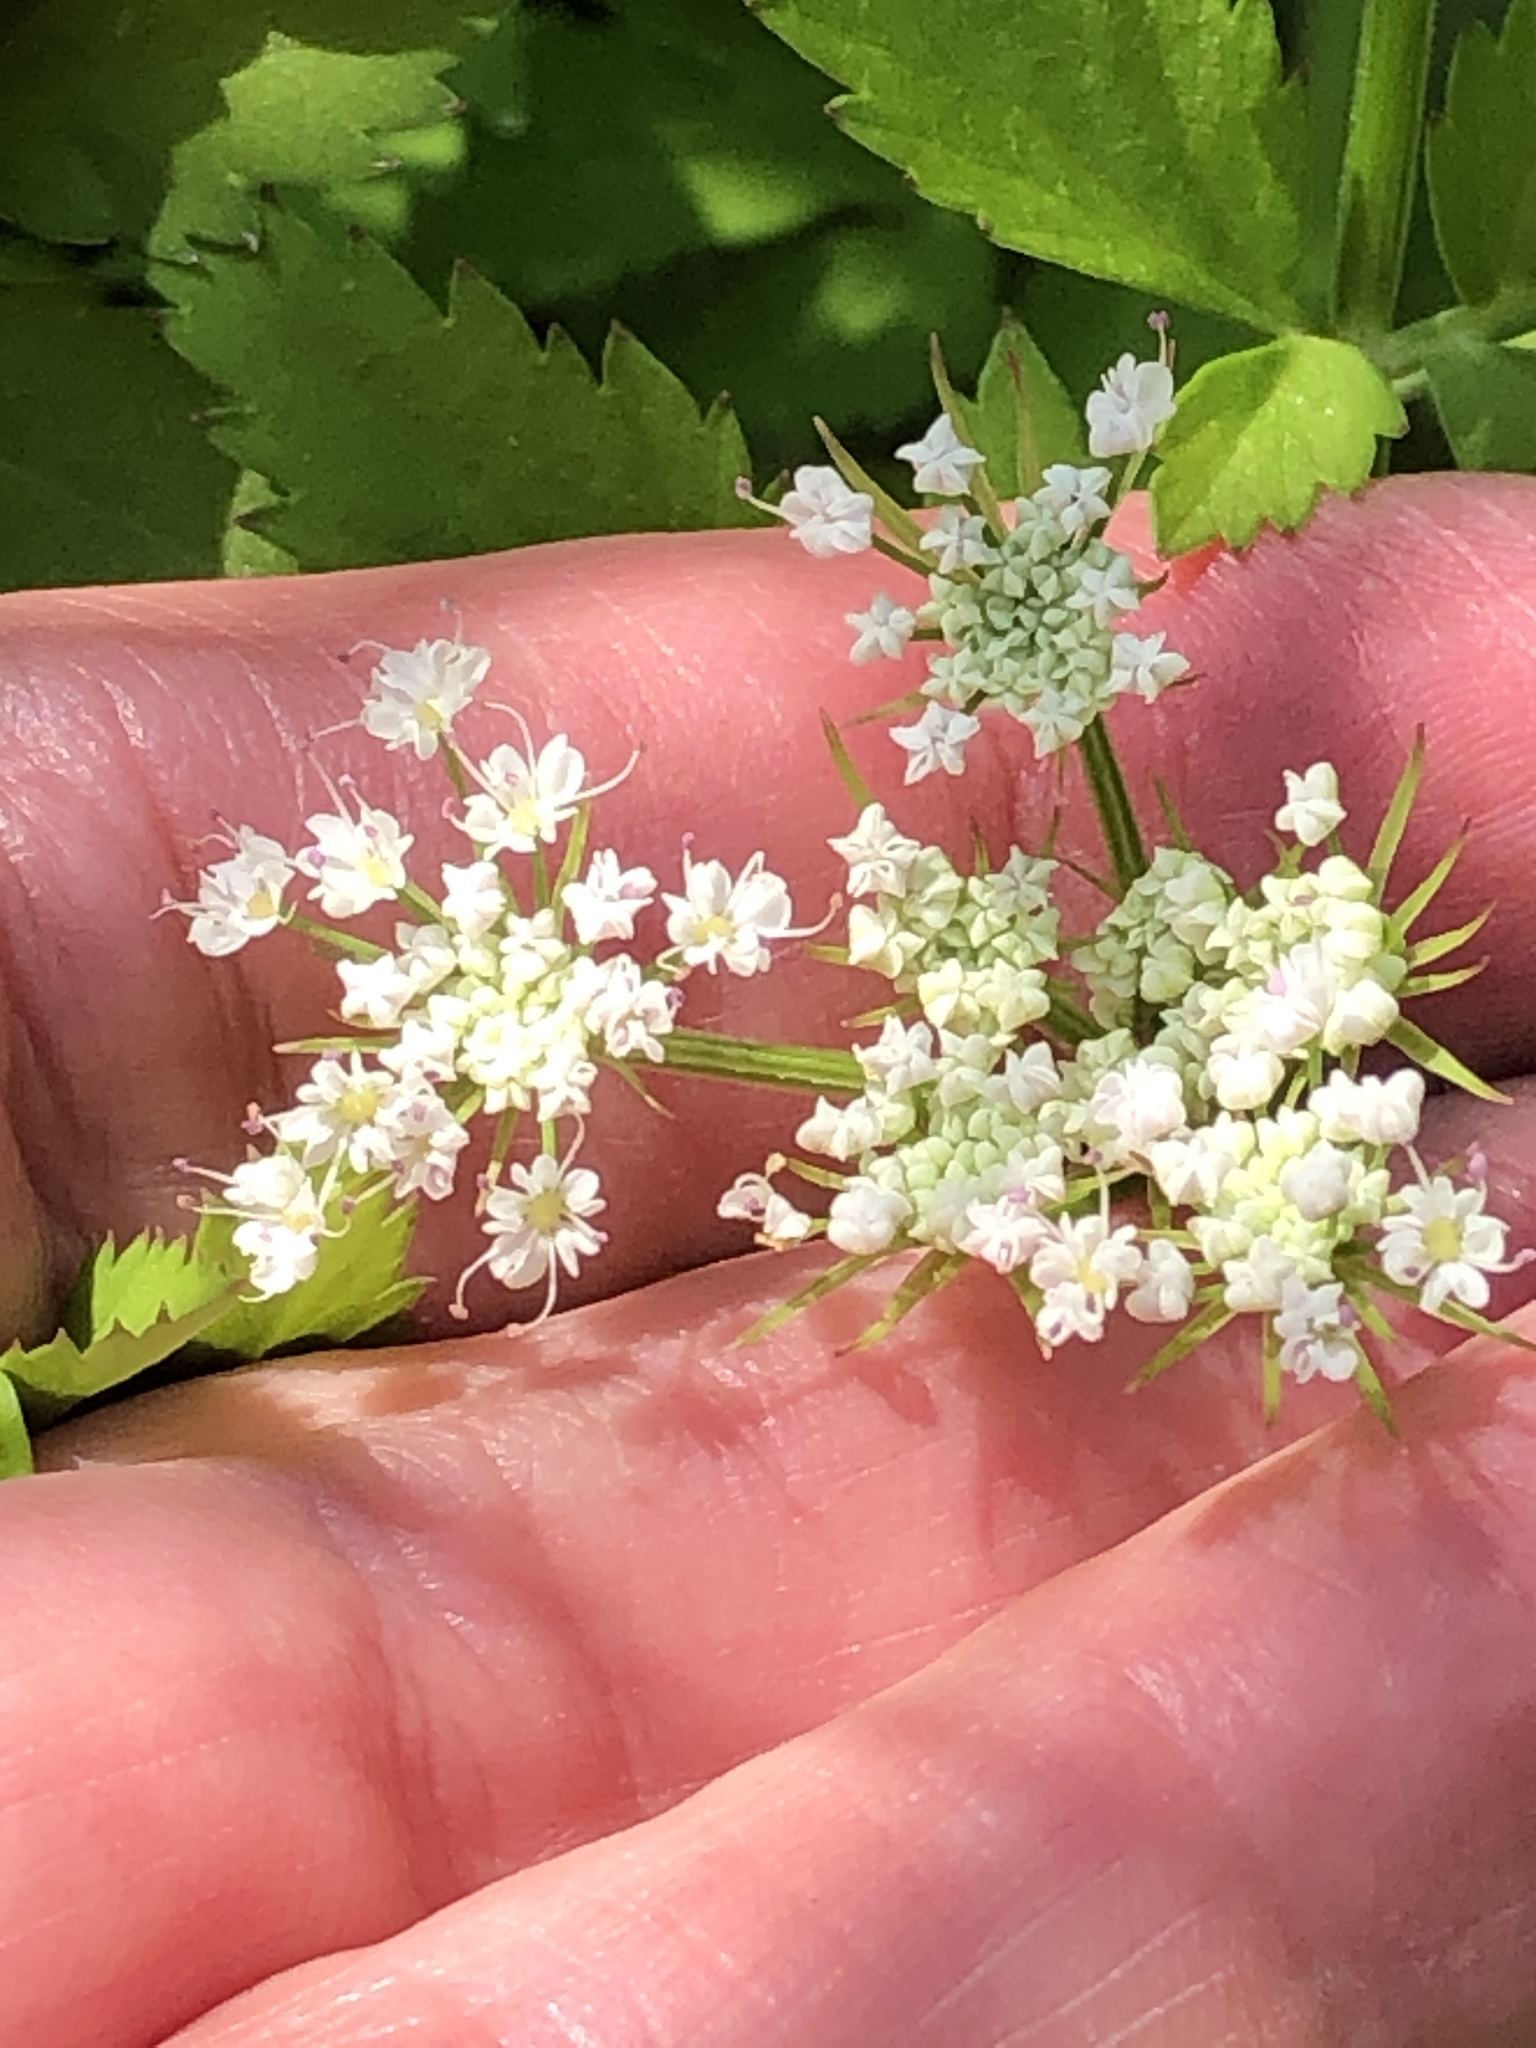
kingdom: Plantae
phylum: Tracheophyta
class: Magnoliopsida
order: Apiales
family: Apiaceae
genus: Oenanthe
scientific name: Oenanthe javanica
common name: Java water-dropwort
